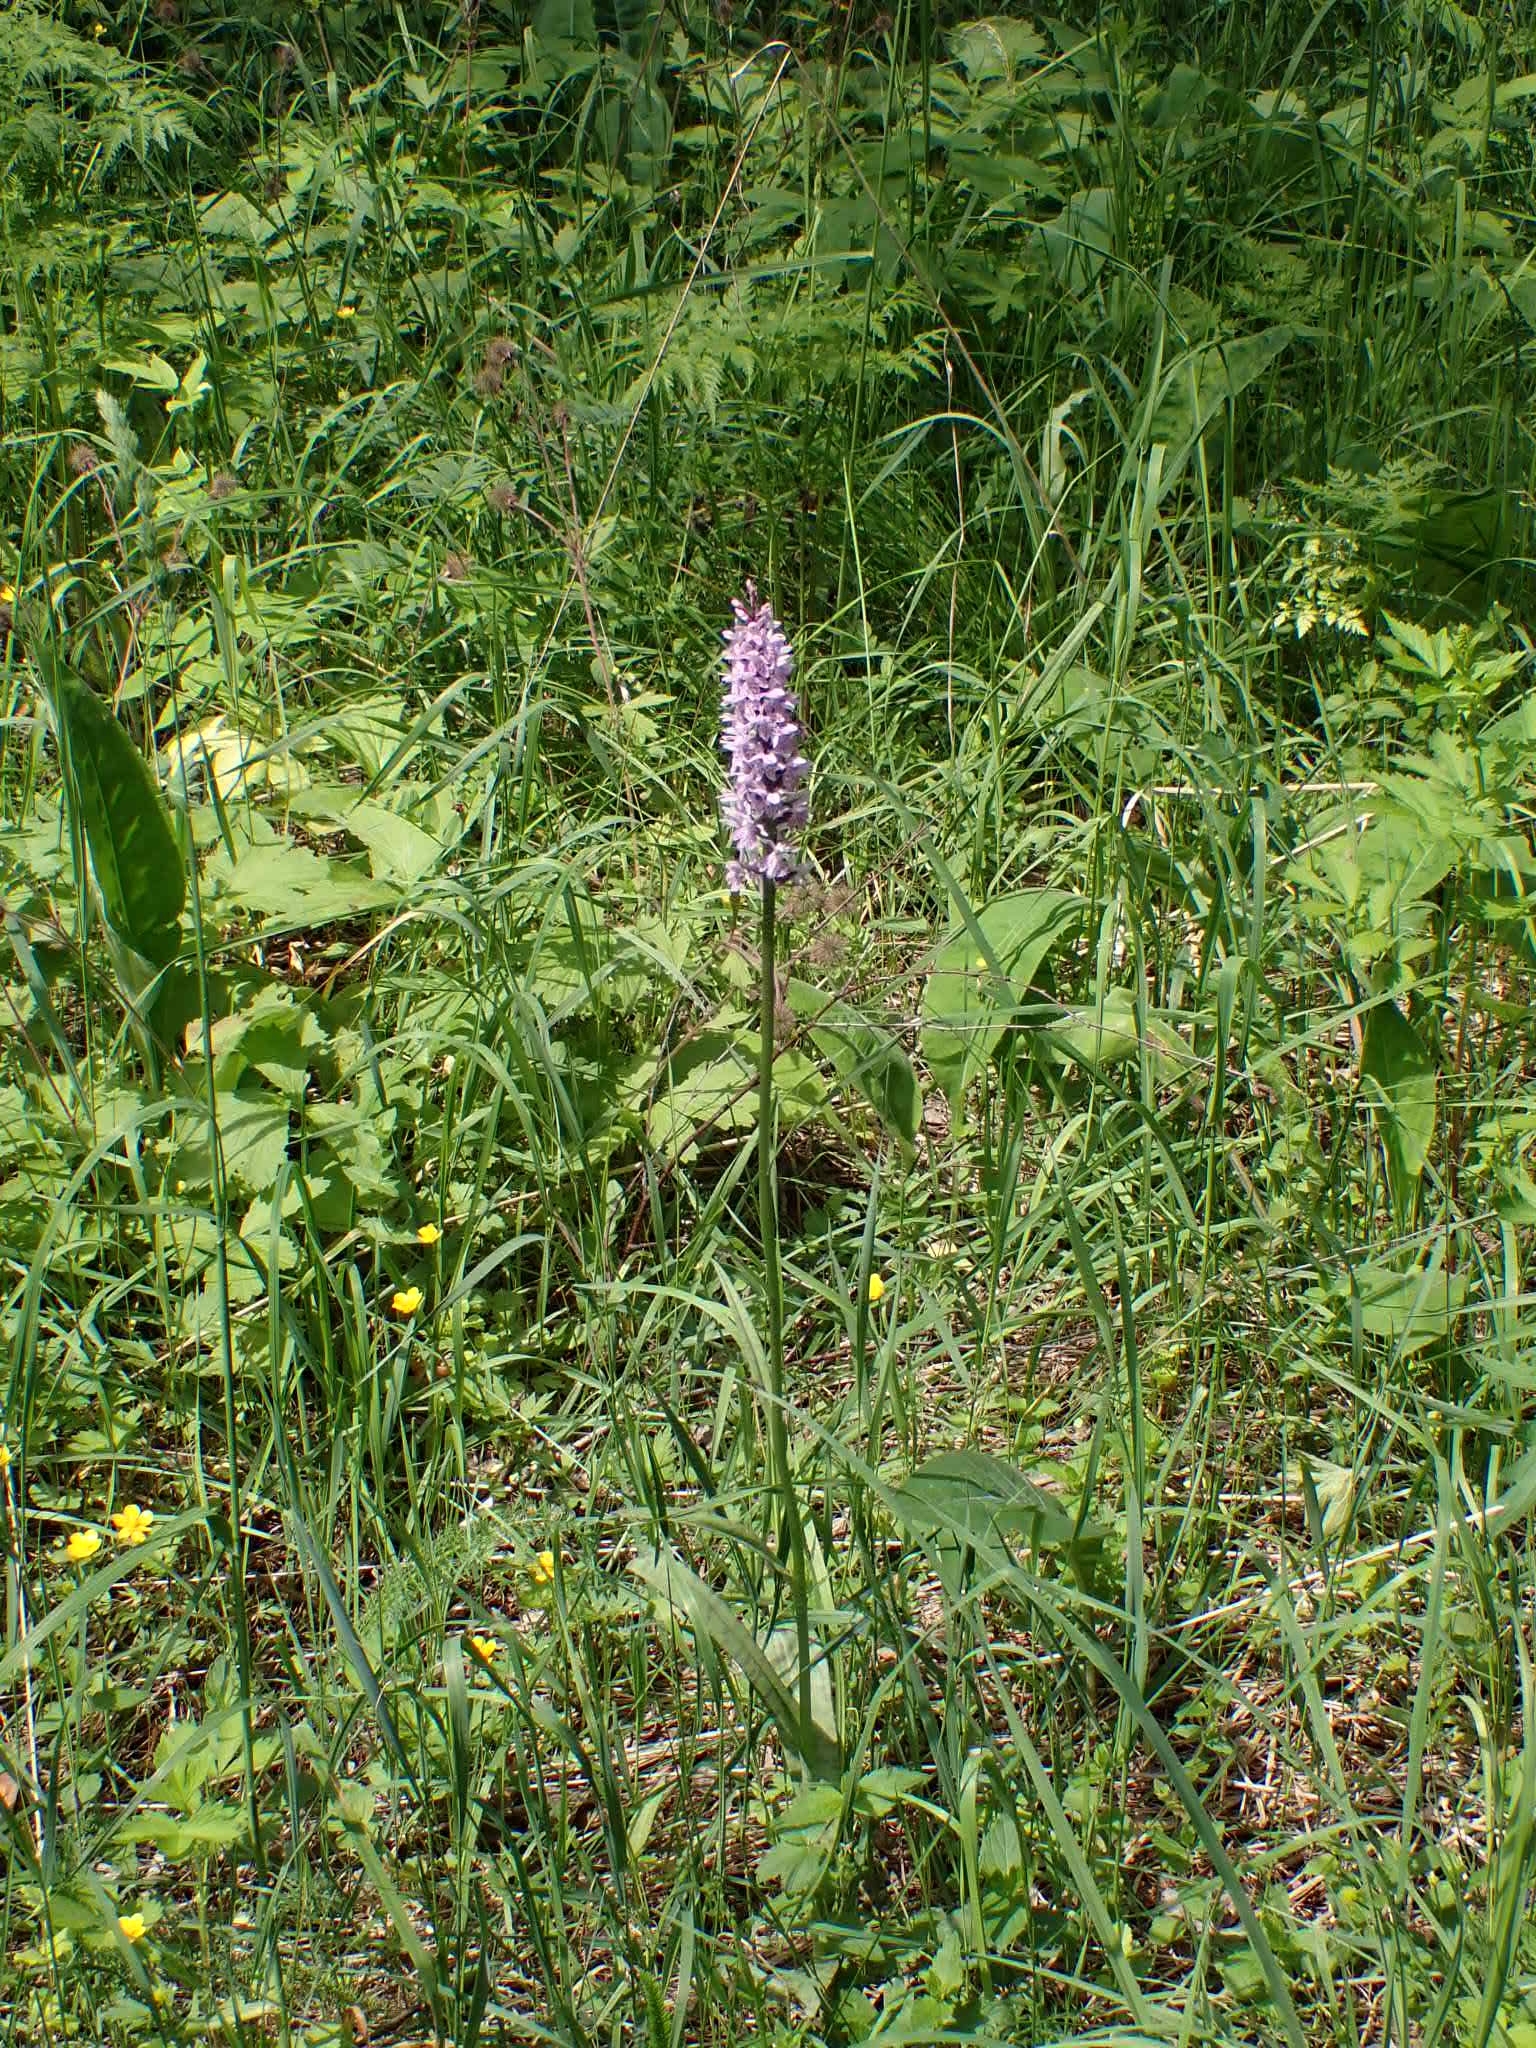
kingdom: Plantae
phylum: Tracheophyta
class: Liliopsida
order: Asparagales
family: Orchidaceae
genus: Dactylorhiza
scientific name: Dactylorhiza maculata
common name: Heath spotted-orchid
